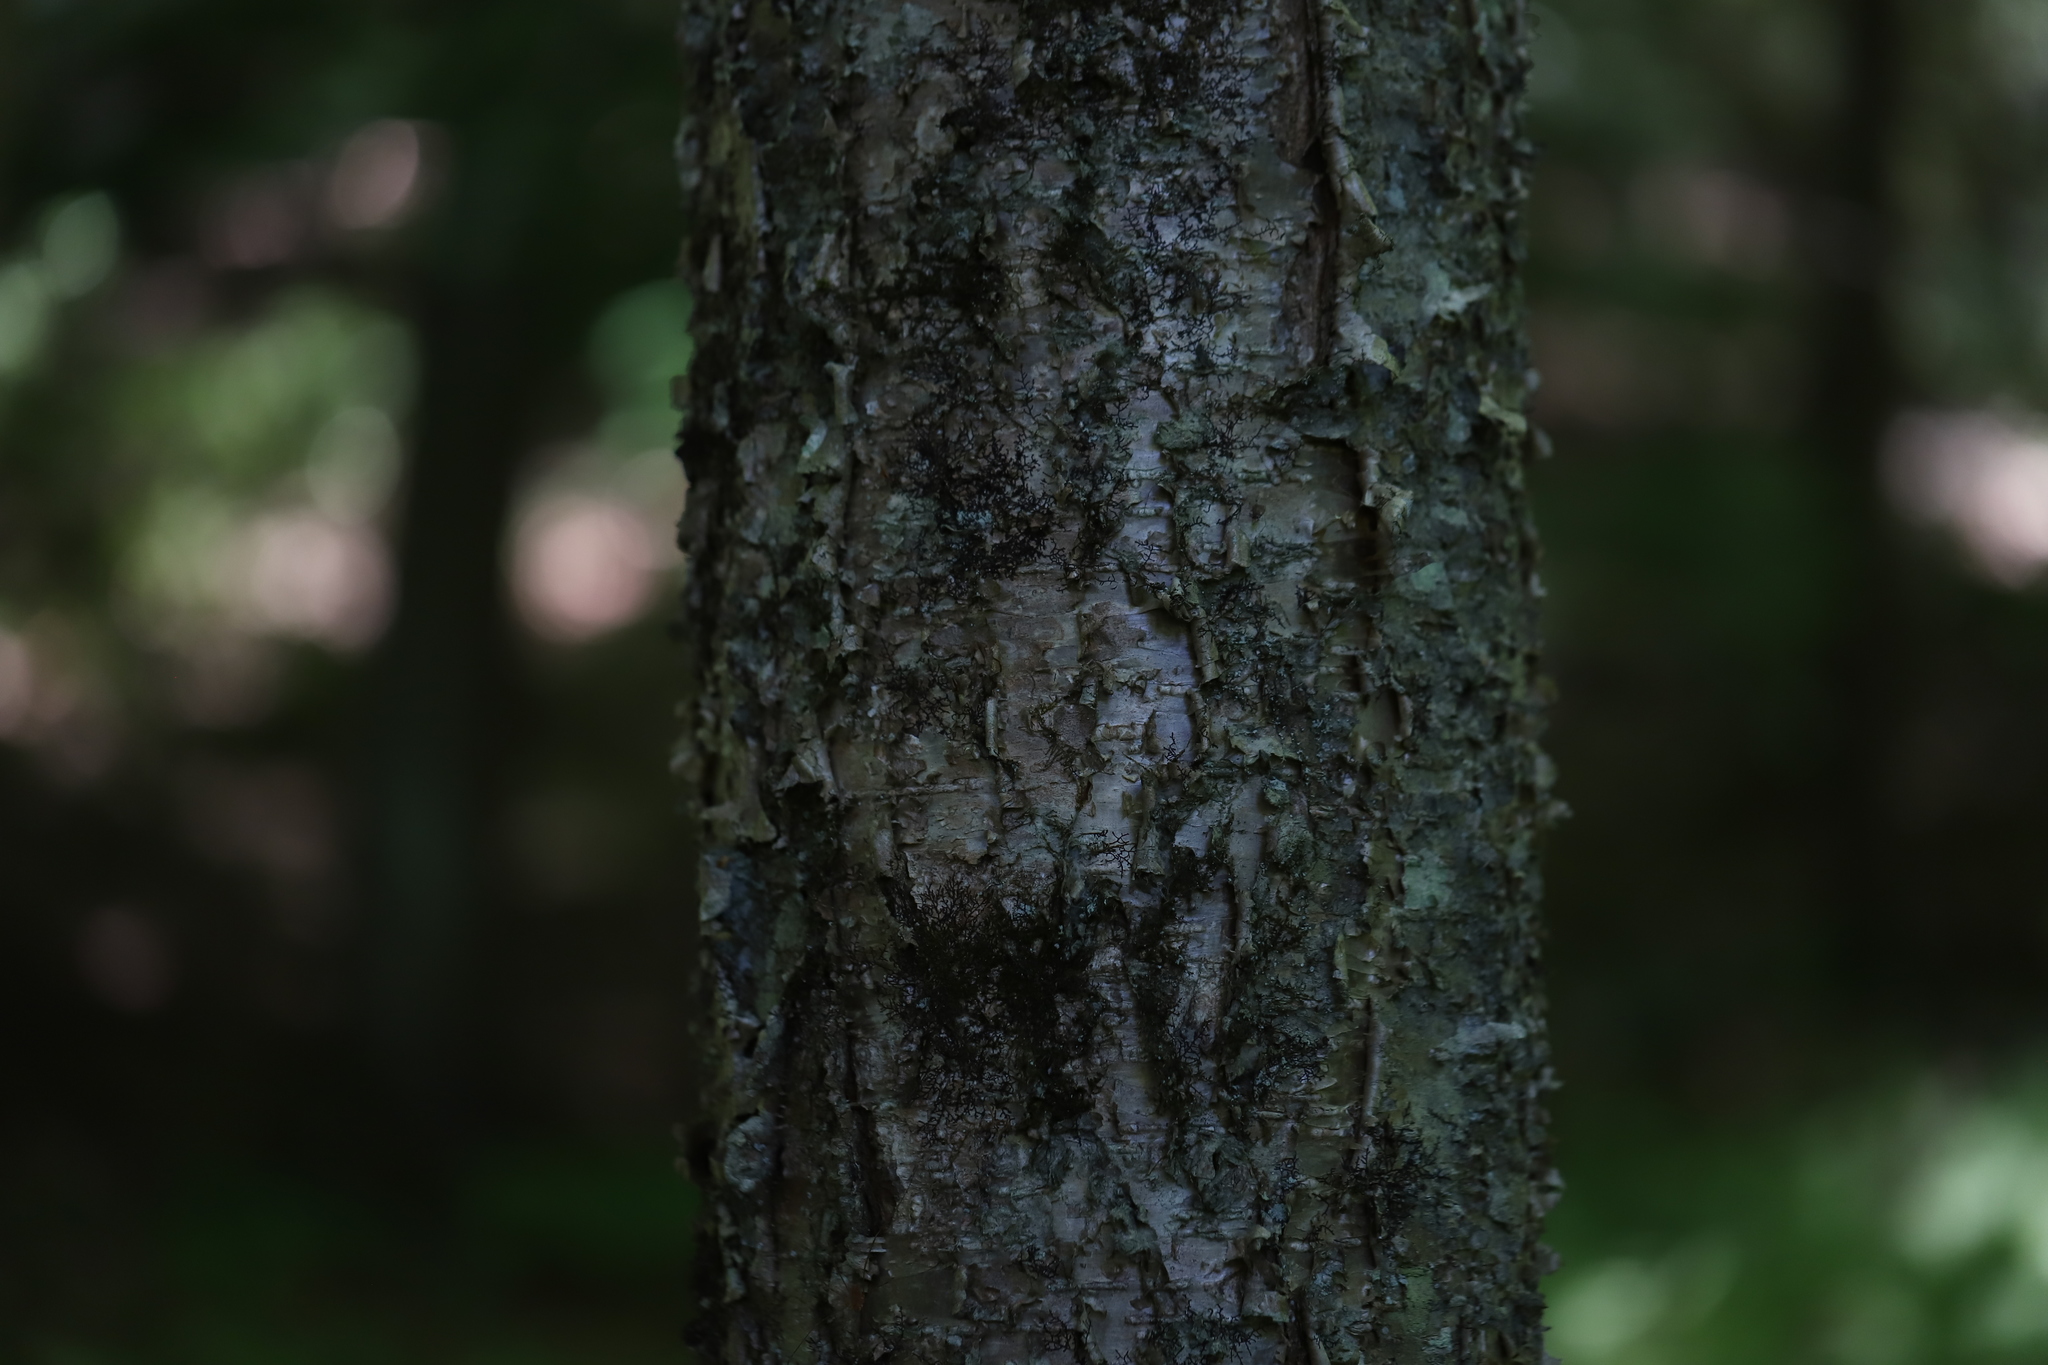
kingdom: Plantae
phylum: Tracheophyta
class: Magnoliopsida
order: Fagales
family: Betulaceae
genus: Betula
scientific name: Betula alleghaniensis
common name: Yellow birch
